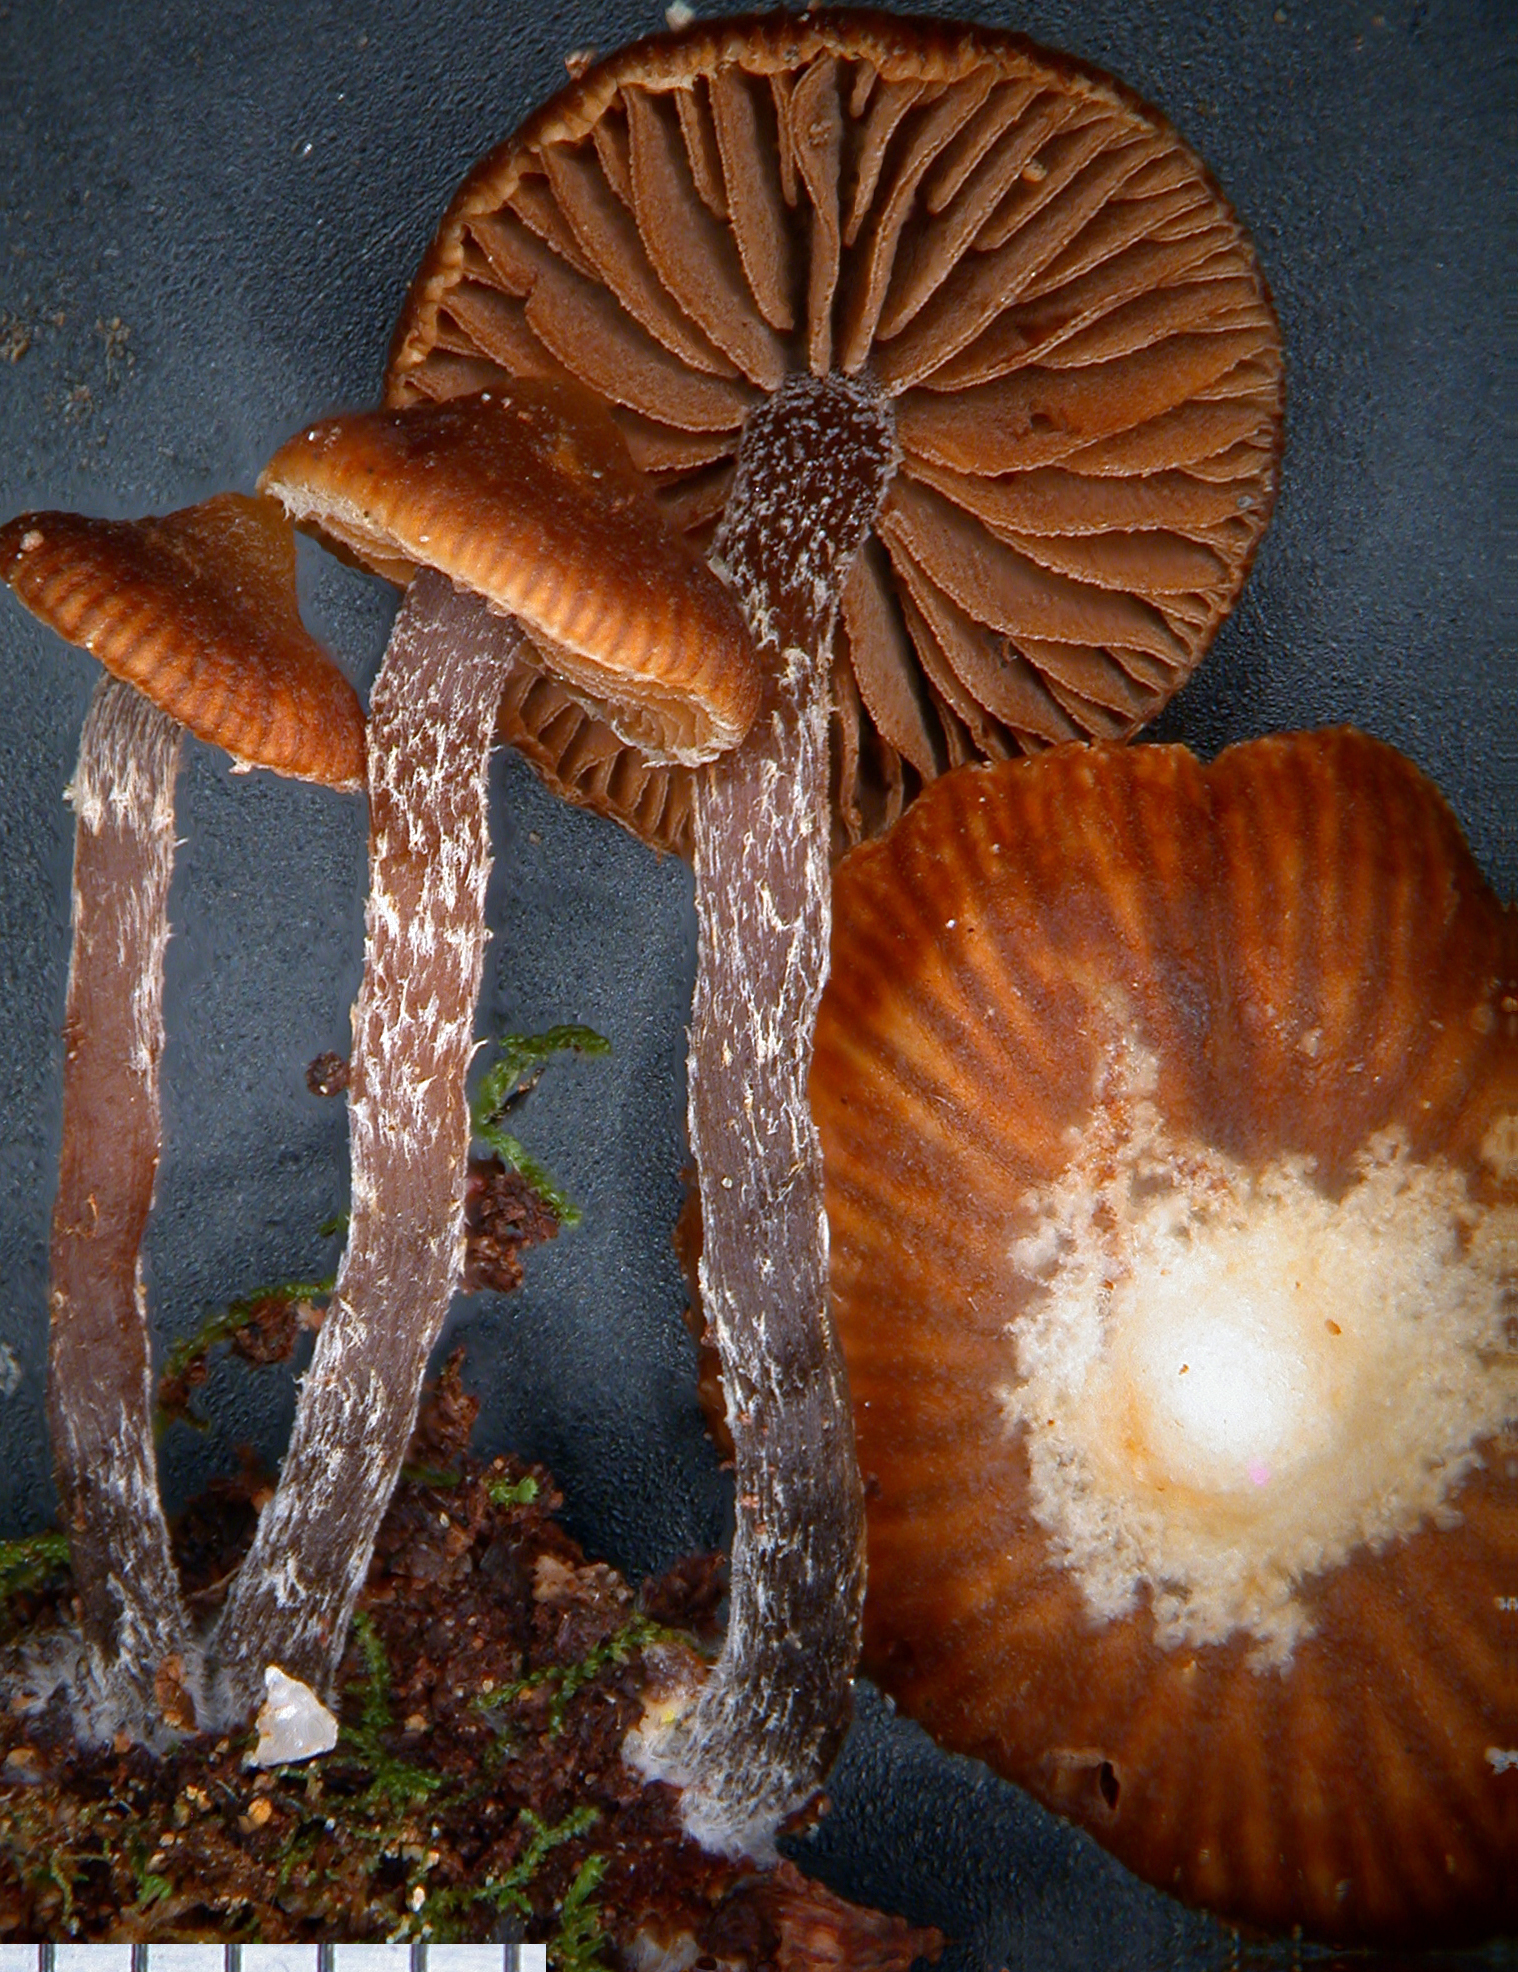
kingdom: Fungi
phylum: Basidiomycota
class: Agaricomycetes
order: Agaricales
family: Strophariaceae
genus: Kuehneromyces
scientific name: Kuehneromyces brunneoalbescens
